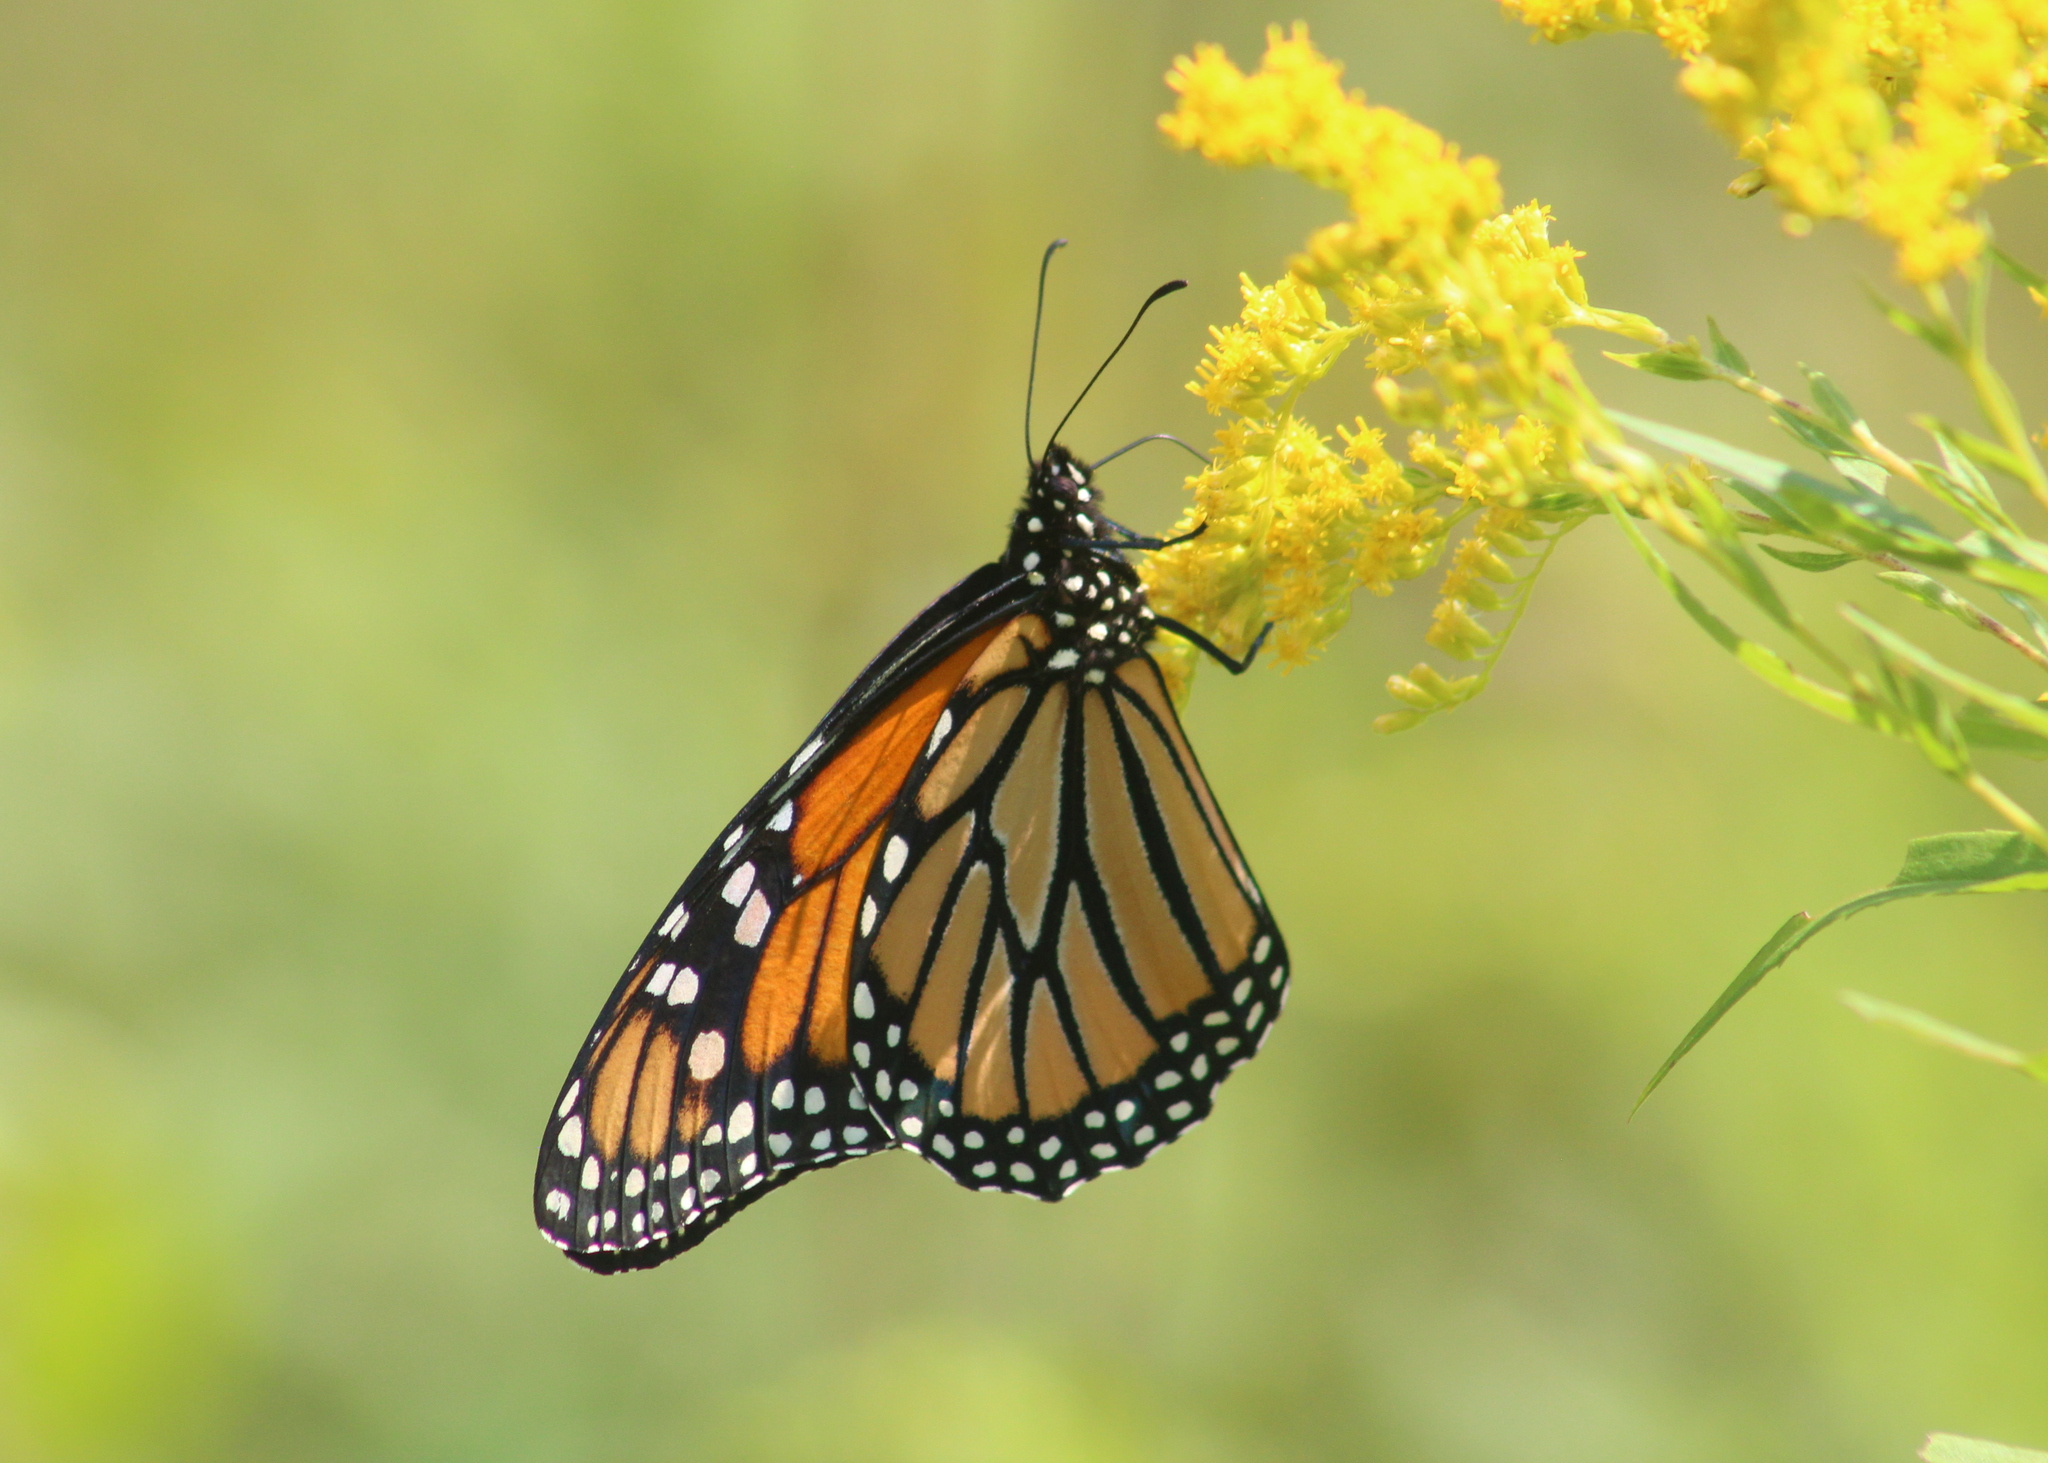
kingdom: Animalia
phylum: Arthropoda
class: Insecta
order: Lepidoptera
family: Nymphalidae
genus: Danaus
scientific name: Danaus plexippus
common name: Monarch
